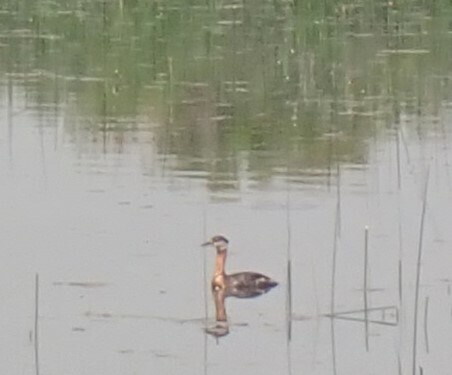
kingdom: Animalia
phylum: Chordata
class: Aves
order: Podicipediformes
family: Podicipedidae
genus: Podiceps
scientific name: Podiceps grisegena
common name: Red-necked grebe
